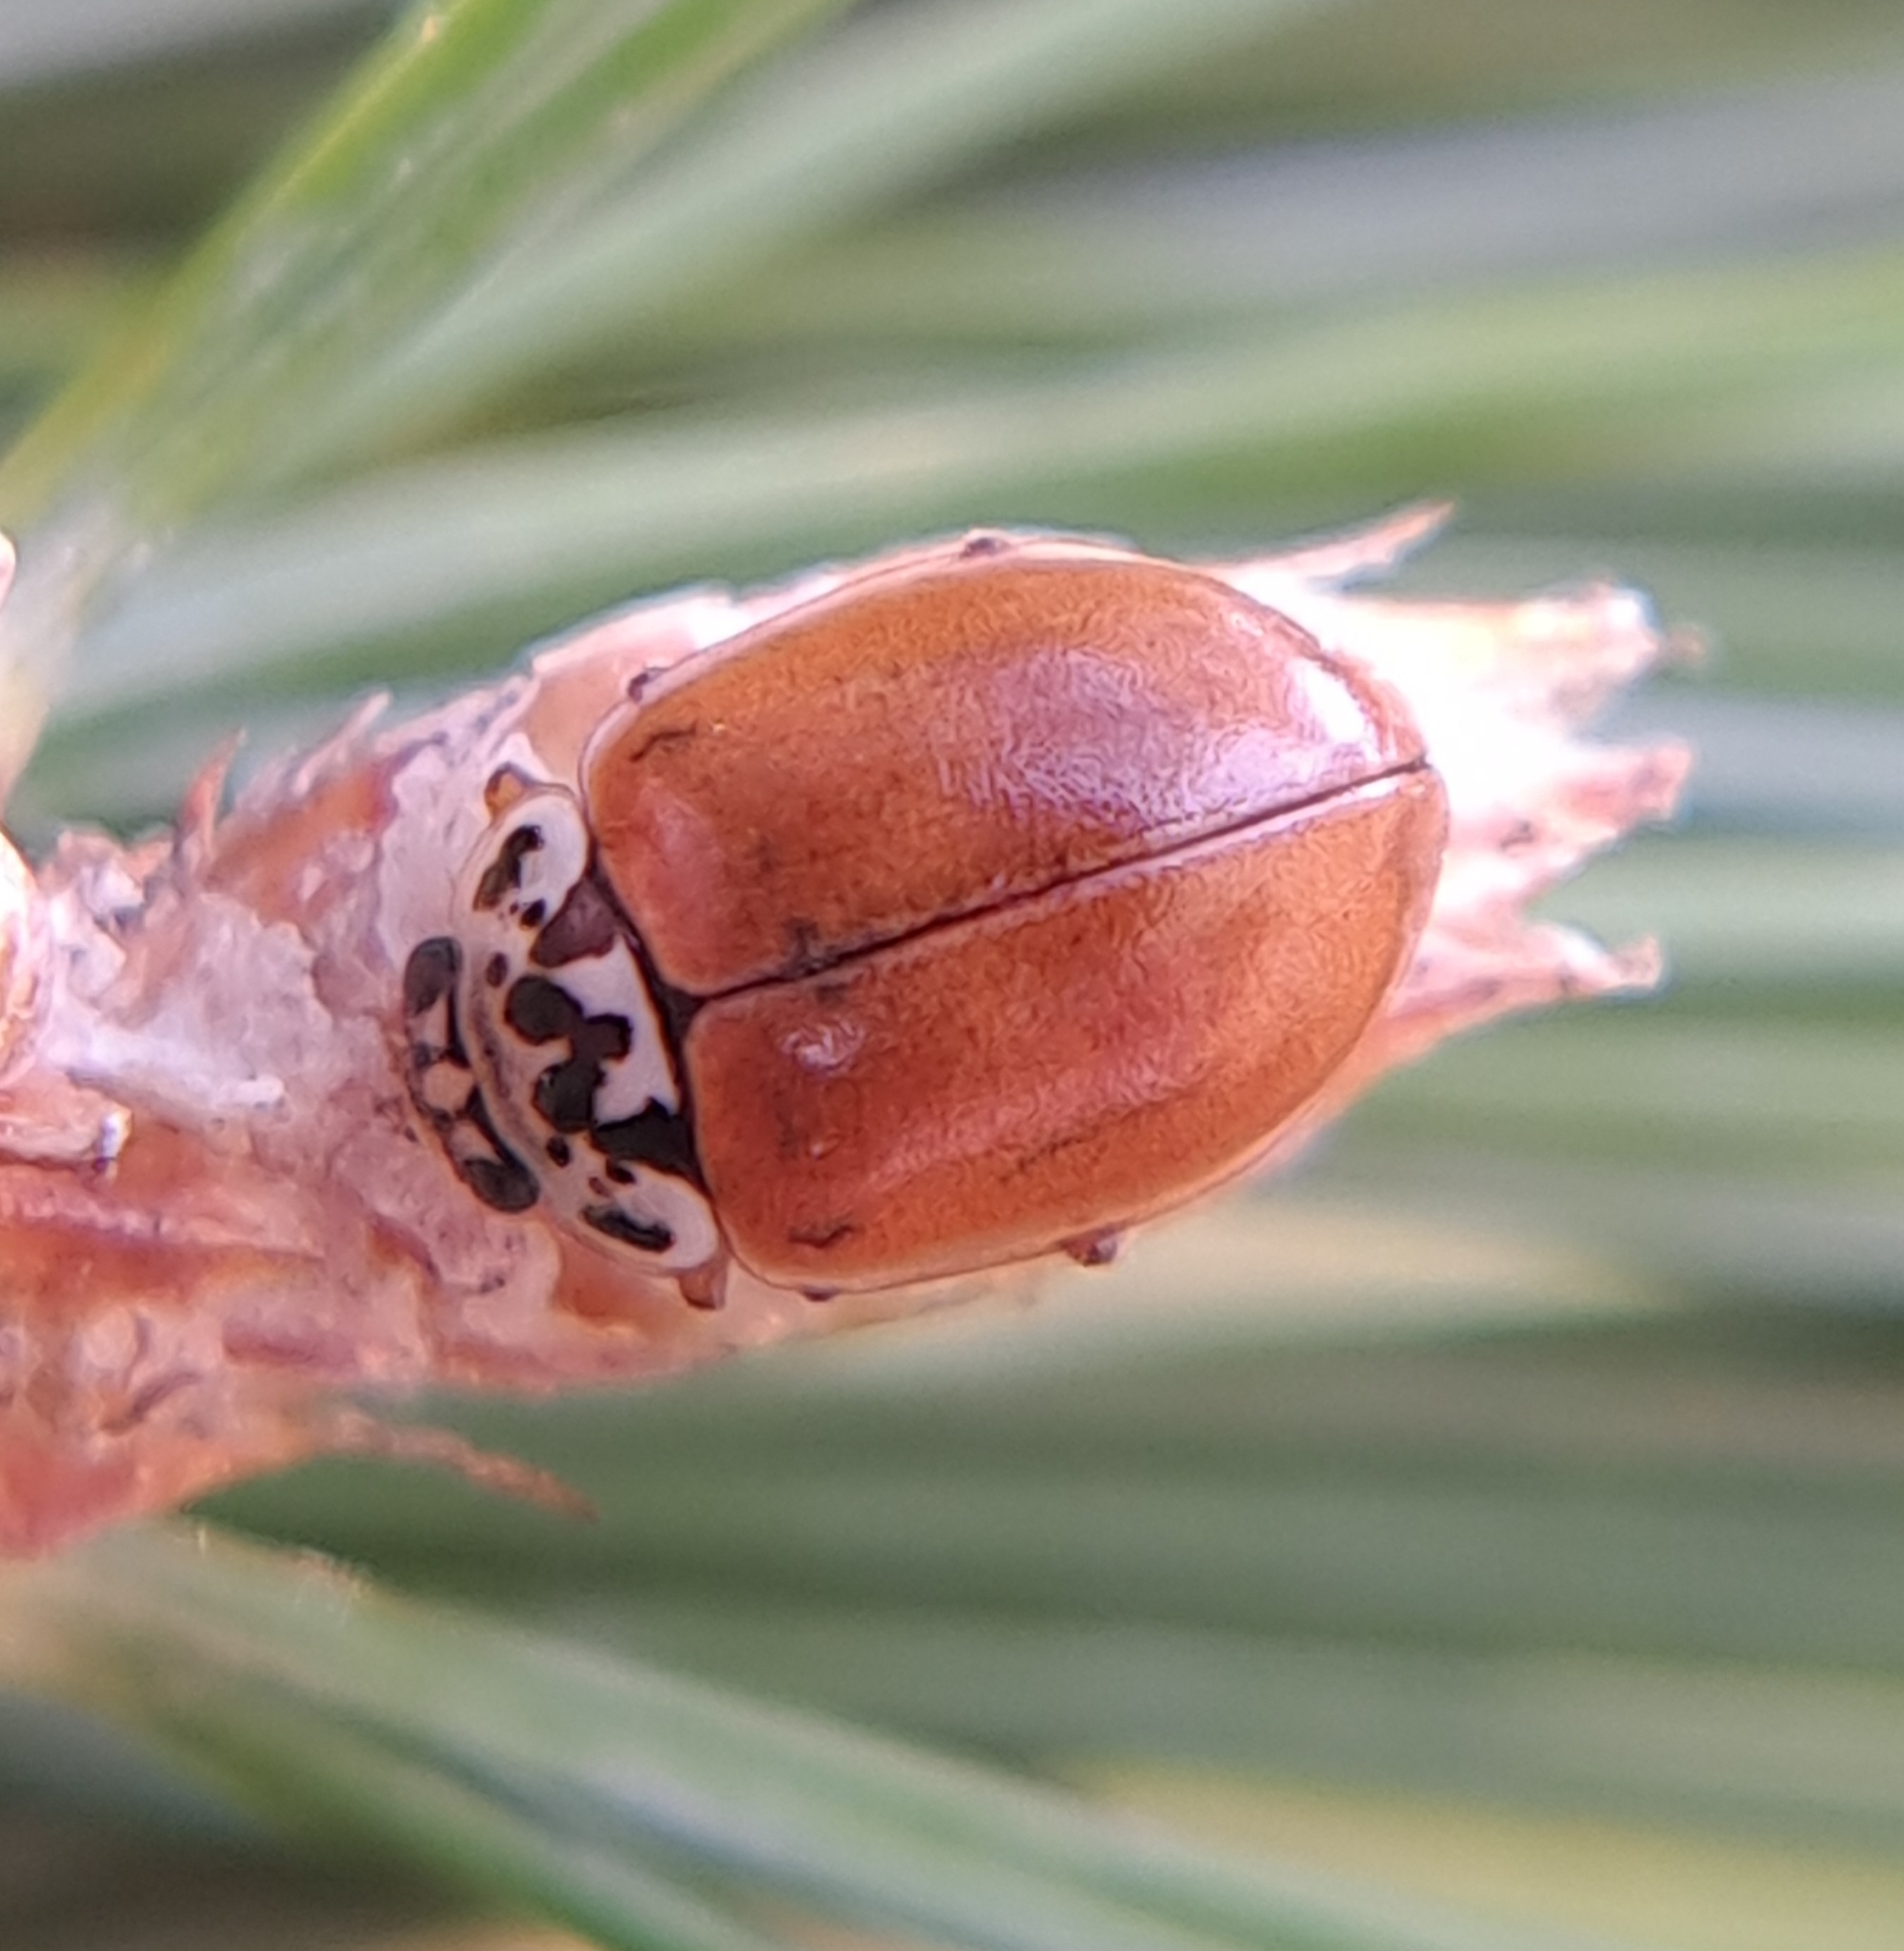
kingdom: Animalia
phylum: Arthropoda
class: Insecta
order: Coleoptera
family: Coccinellidae
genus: Mulsantina
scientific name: Mulsantina picta
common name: Painted ladybird
